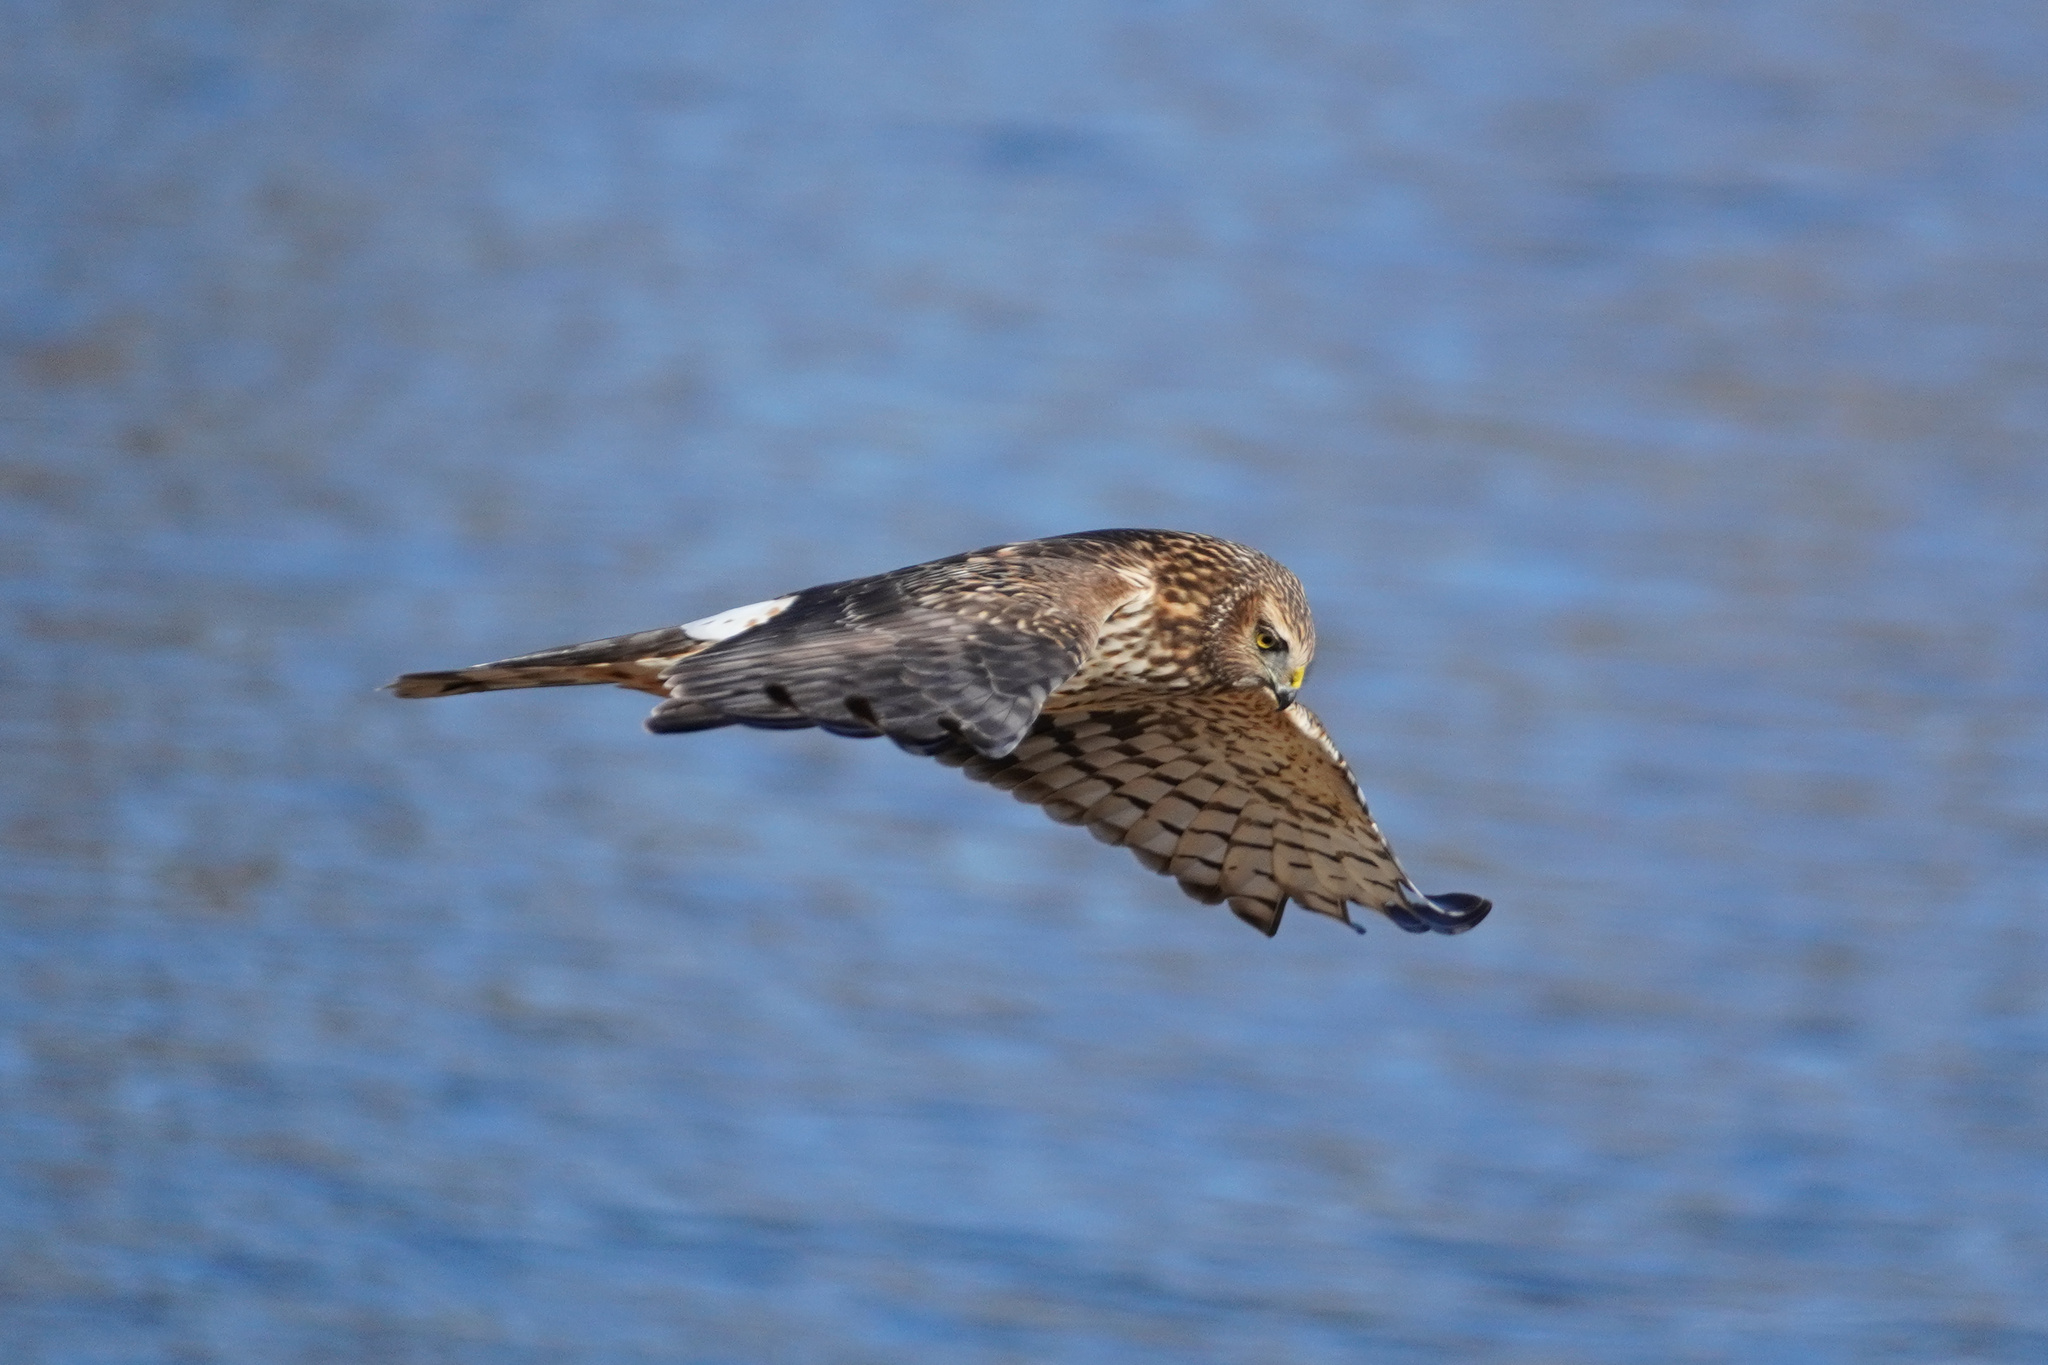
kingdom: Animalia
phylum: Chordata
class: Aves
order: Accipitriformes
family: Accipitridae
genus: Circus
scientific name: Circus cyaneus
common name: Hen harrier
